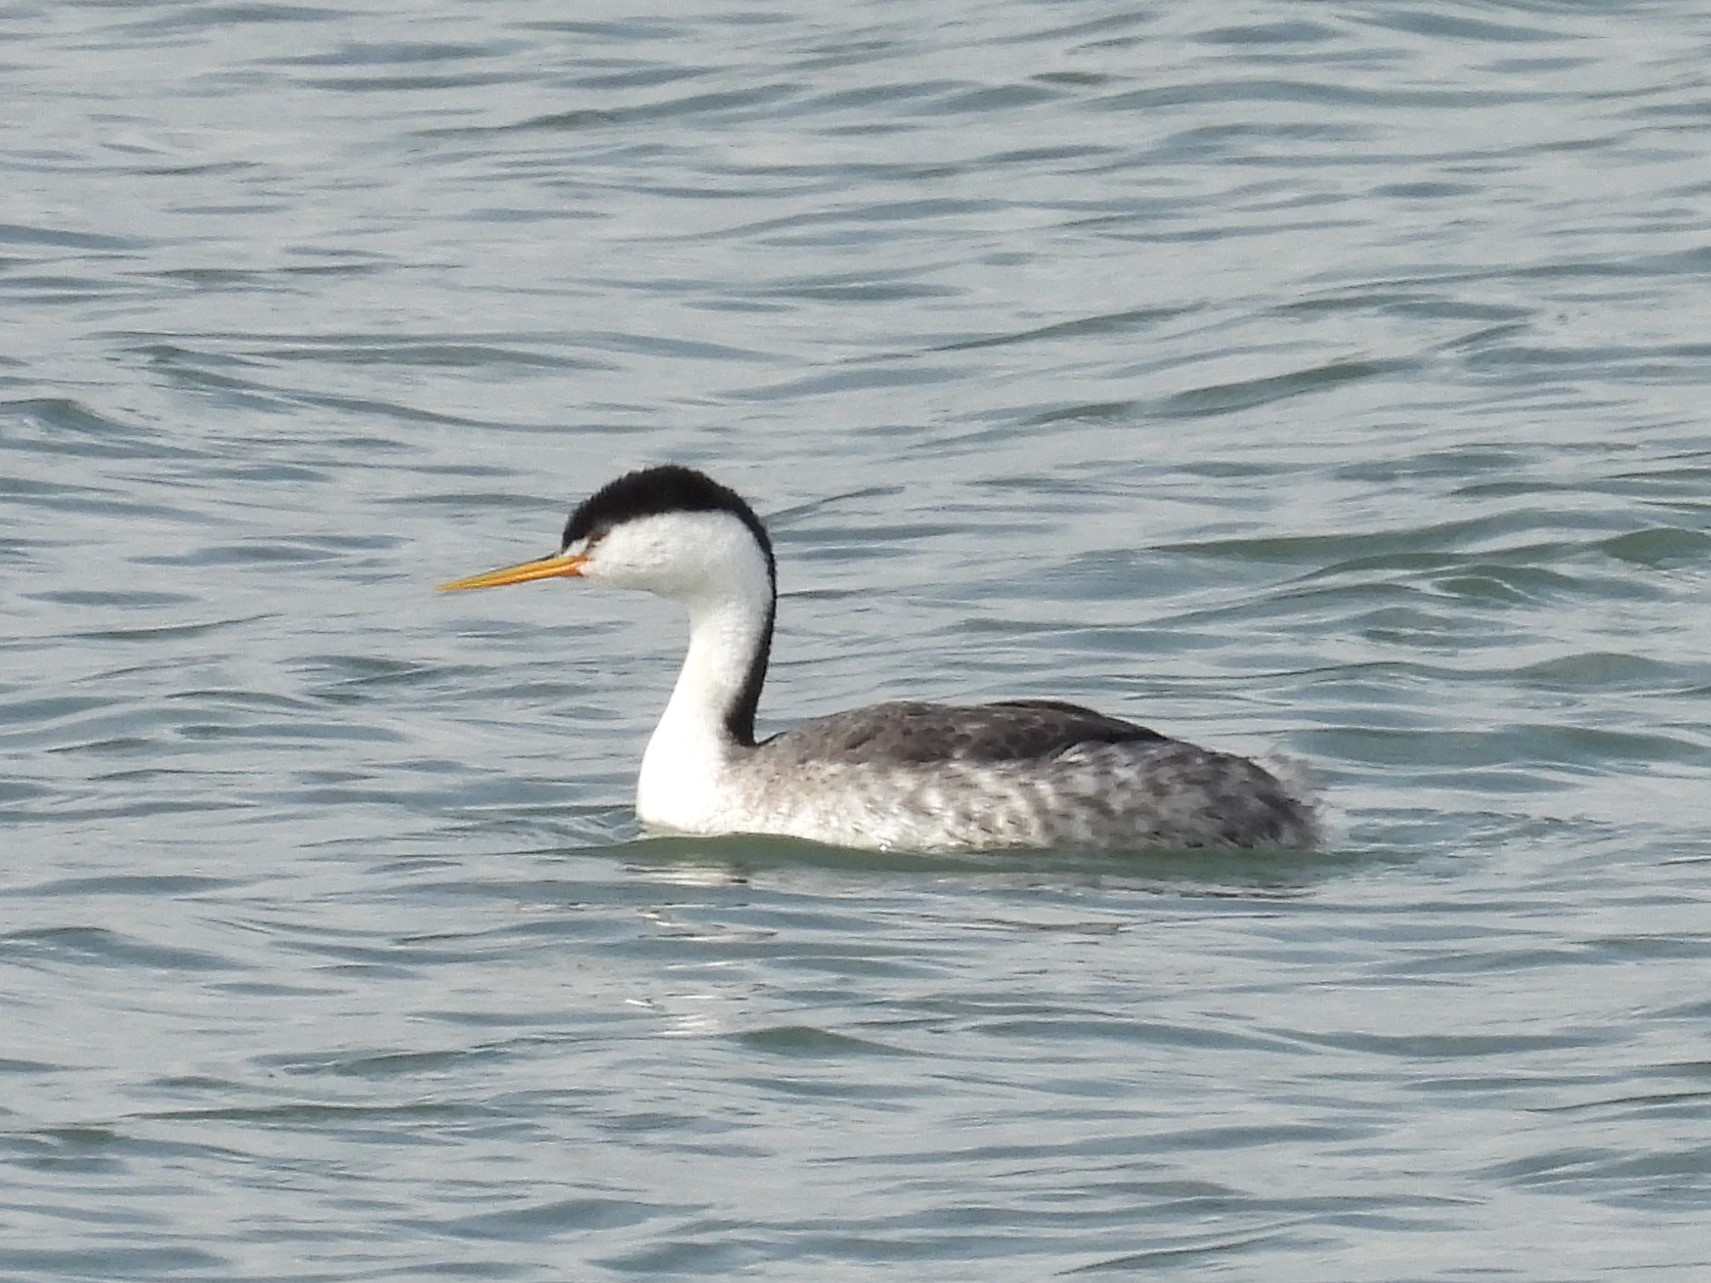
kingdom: Animalia
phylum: Chordata
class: Aves
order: Podicipediformes
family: Podicipedidae
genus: Aechmophorus
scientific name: Aechmophorus clarkii
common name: Clark's grebe
